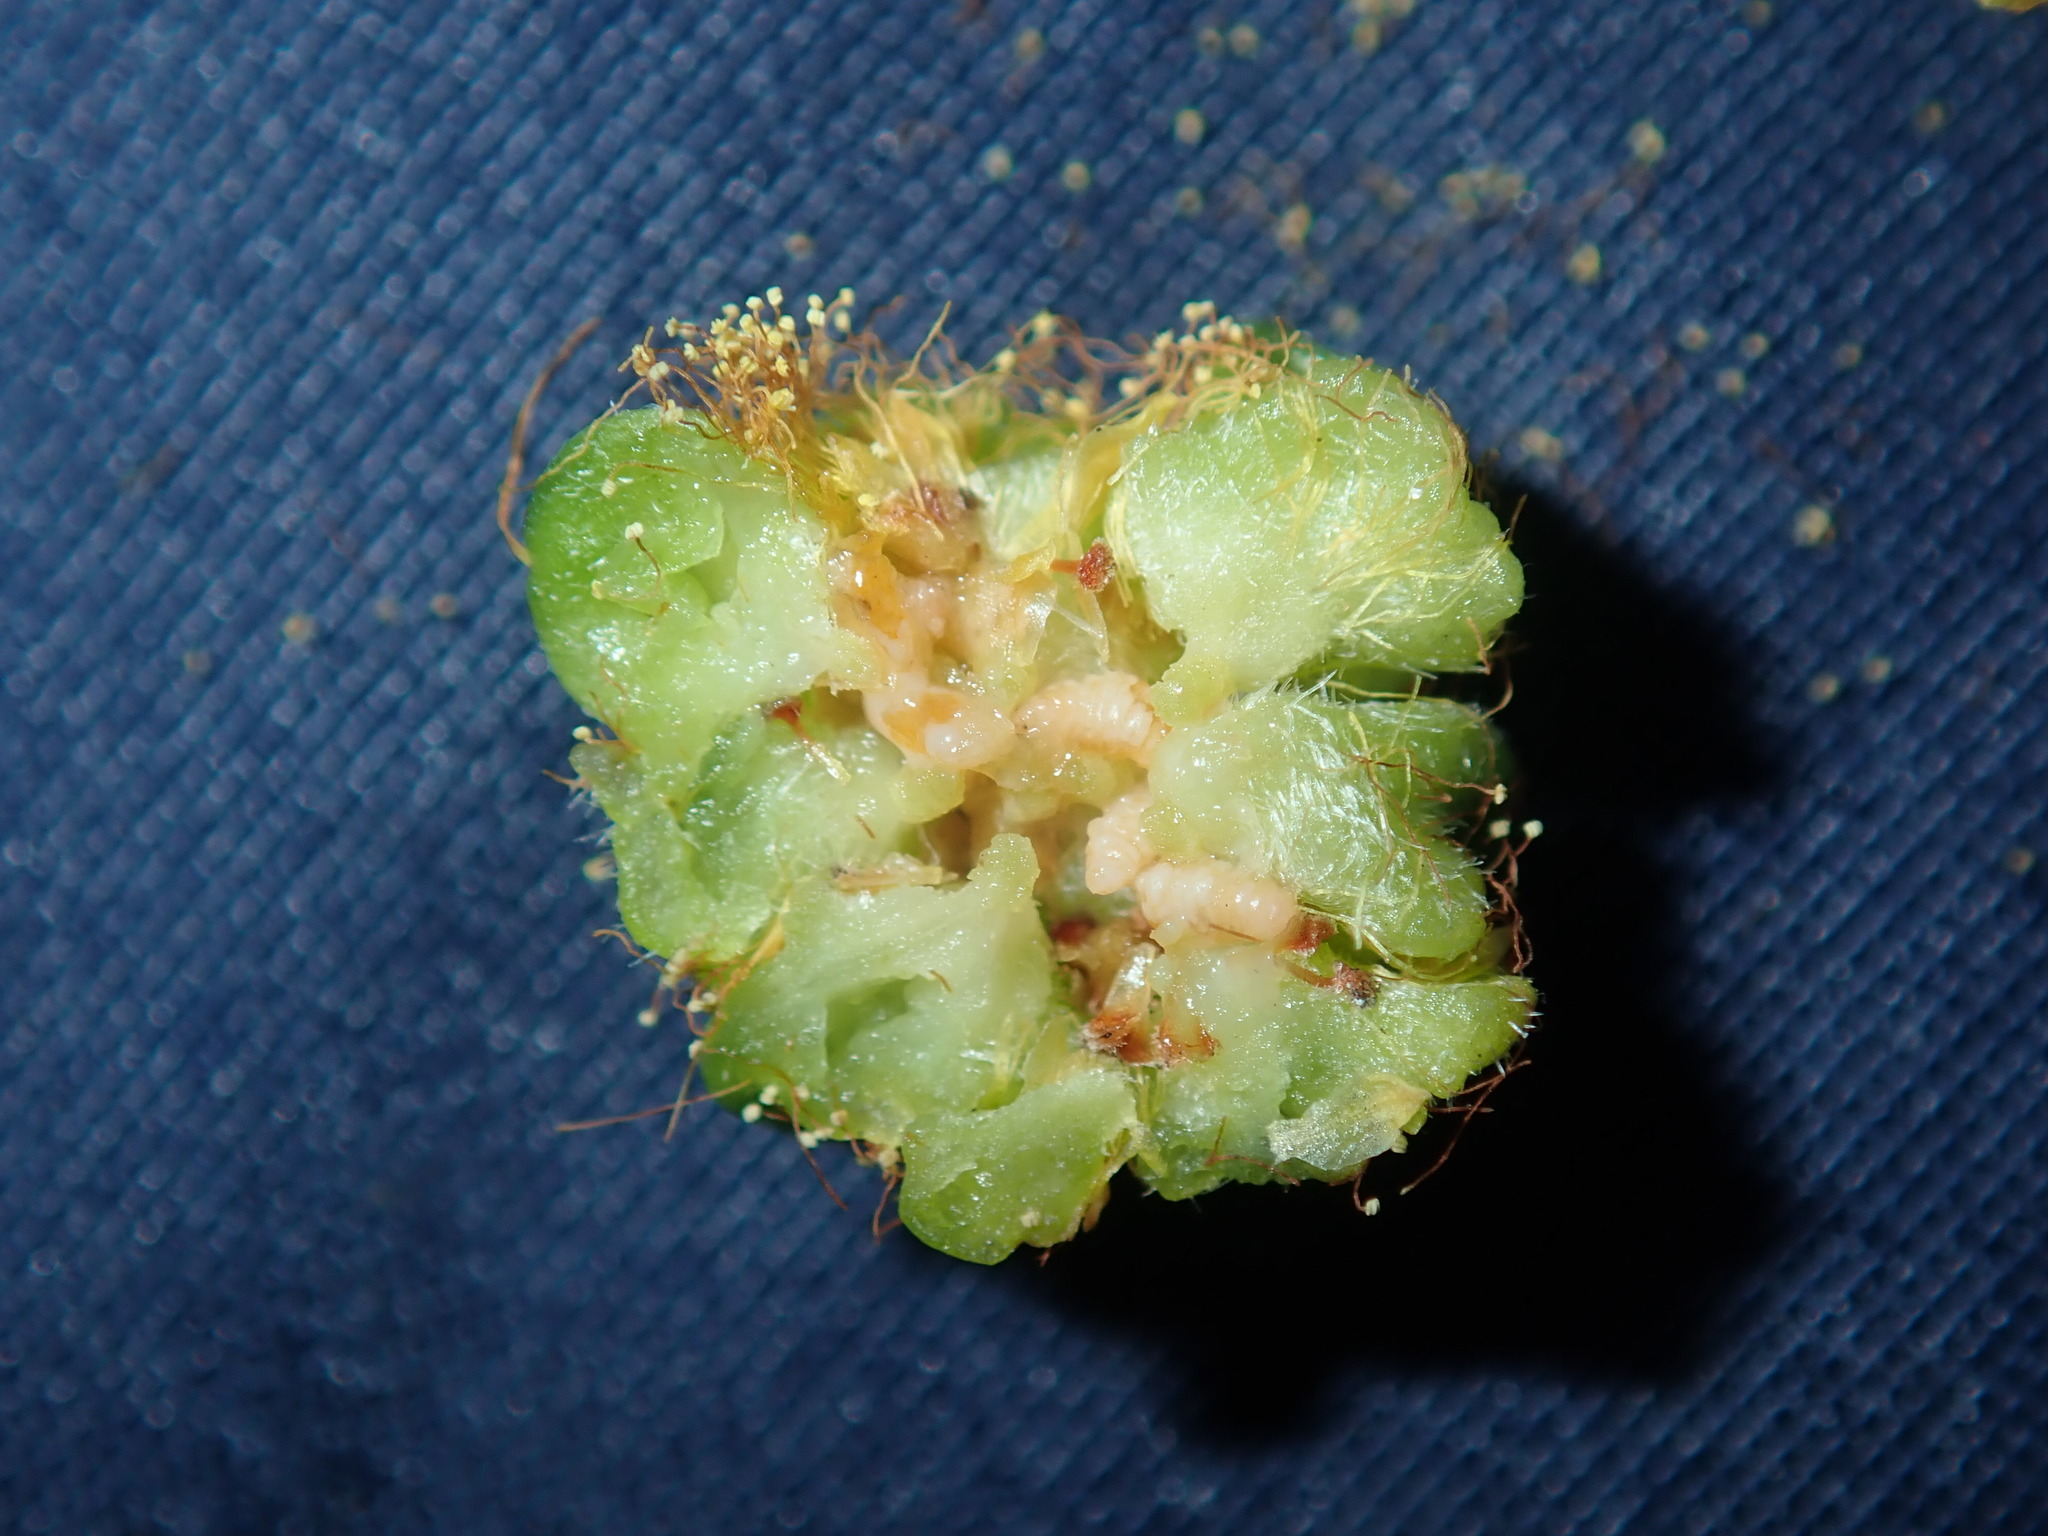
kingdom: Animalia
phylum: Arthropoda
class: Insecta
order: Diptera
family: Cecidomyiidae
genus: Dasineura
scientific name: Dasineura glomerata
